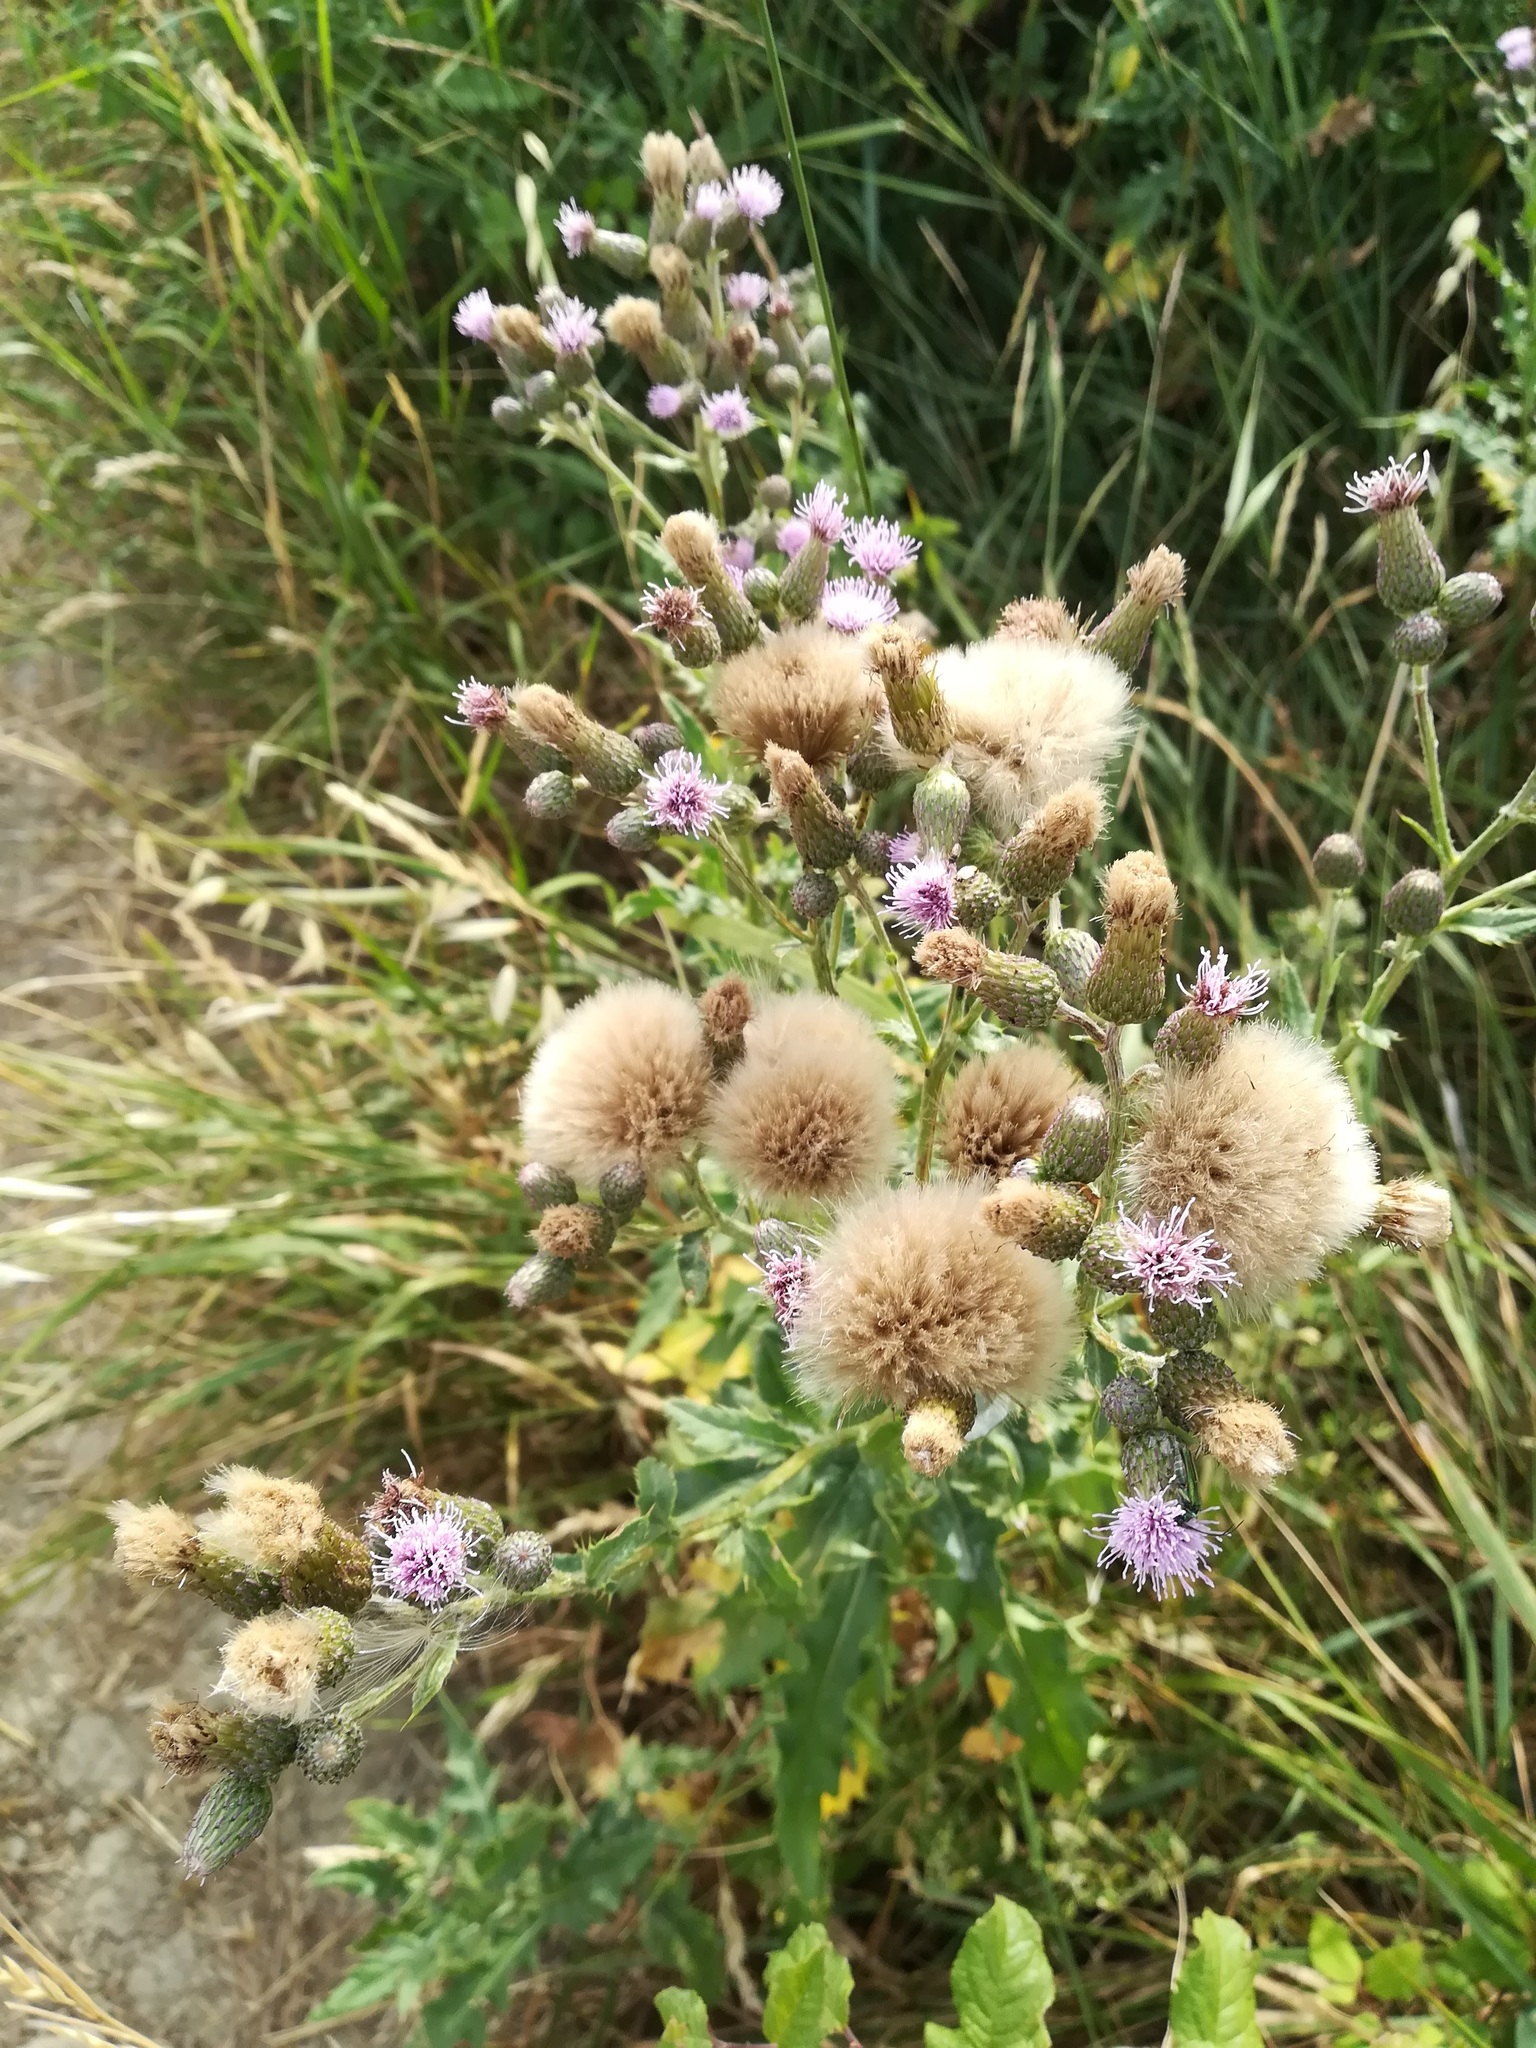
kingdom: Plantae
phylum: Tracheophyta
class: Magnoliopsida
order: Asterales
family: Asteraceae
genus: Cirsium
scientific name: Cirsium arvense
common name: Creeping thistle
